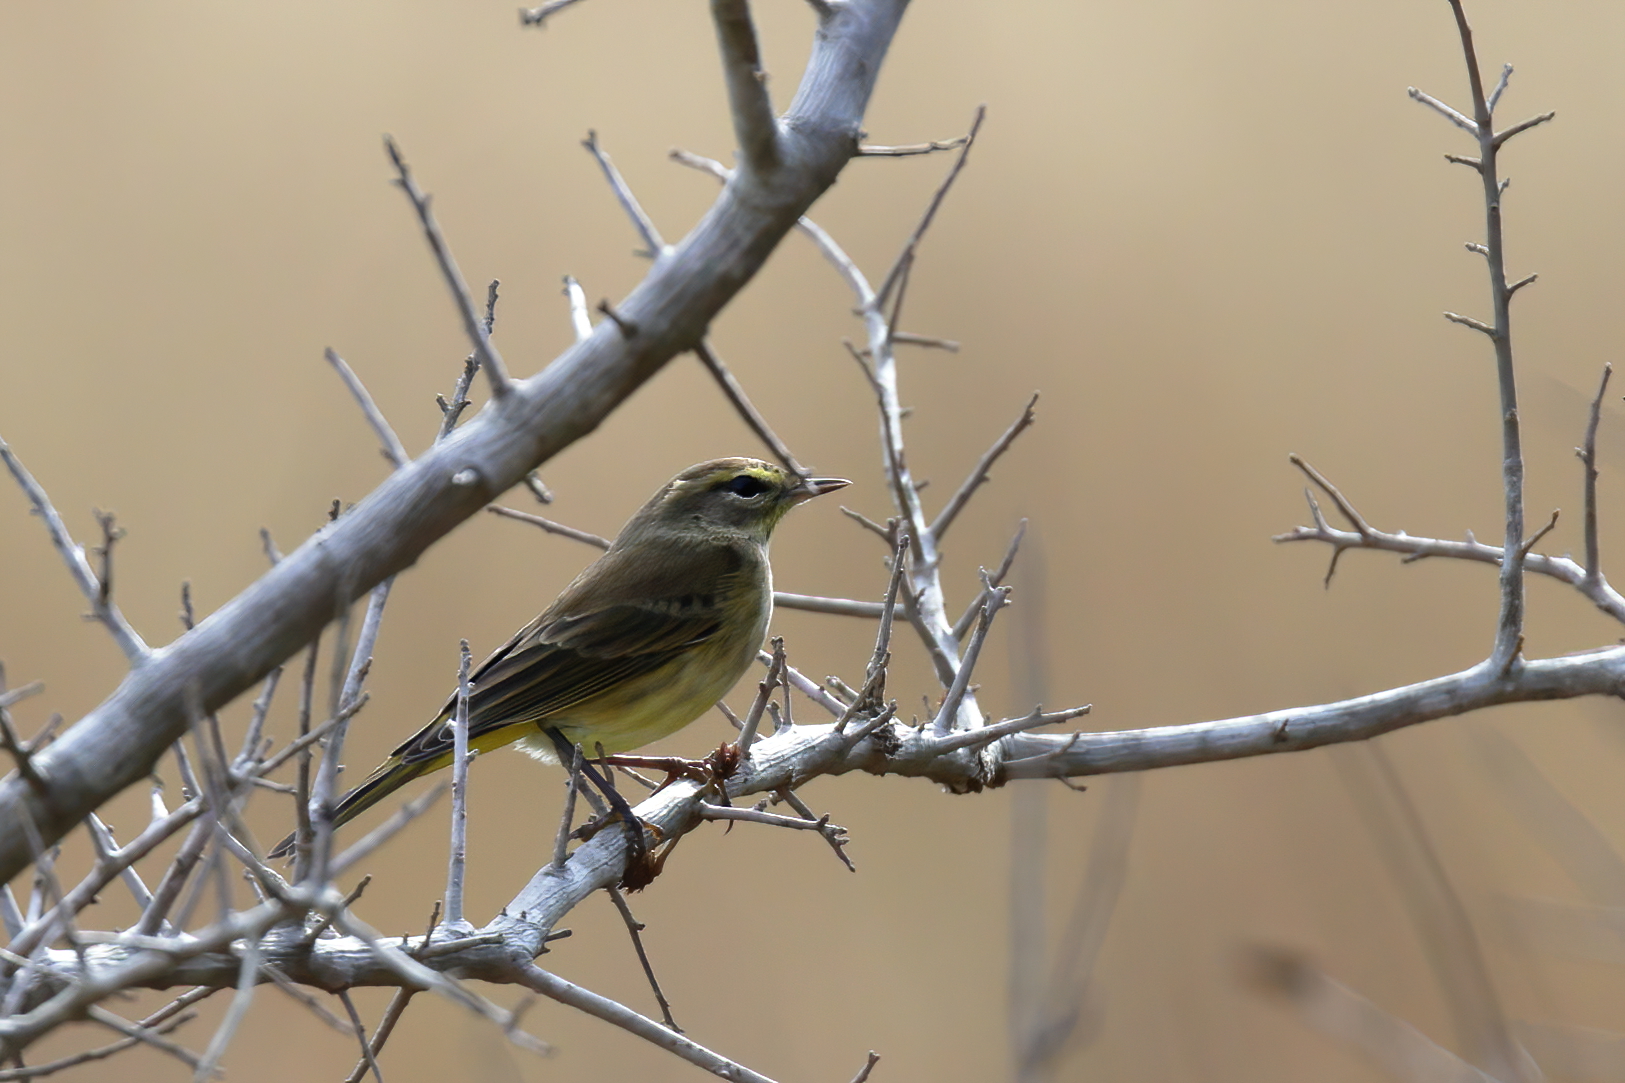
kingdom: Animalia
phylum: Chordata
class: Aves
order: Passeriformes
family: Parulidae
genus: Setophaga
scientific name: Setophaga palmarum
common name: Palm warbler
